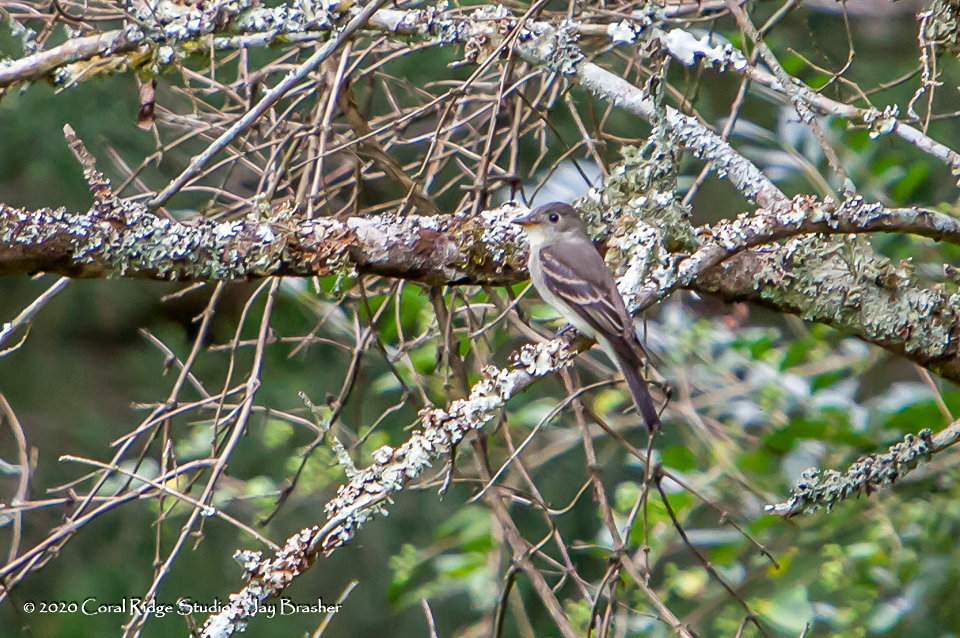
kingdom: Animalia
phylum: Chordata
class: Aves
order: Passeriformes
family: Tyrannidae
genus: Contopus
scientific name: Contopus virens
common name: Eastern wood-pewee
